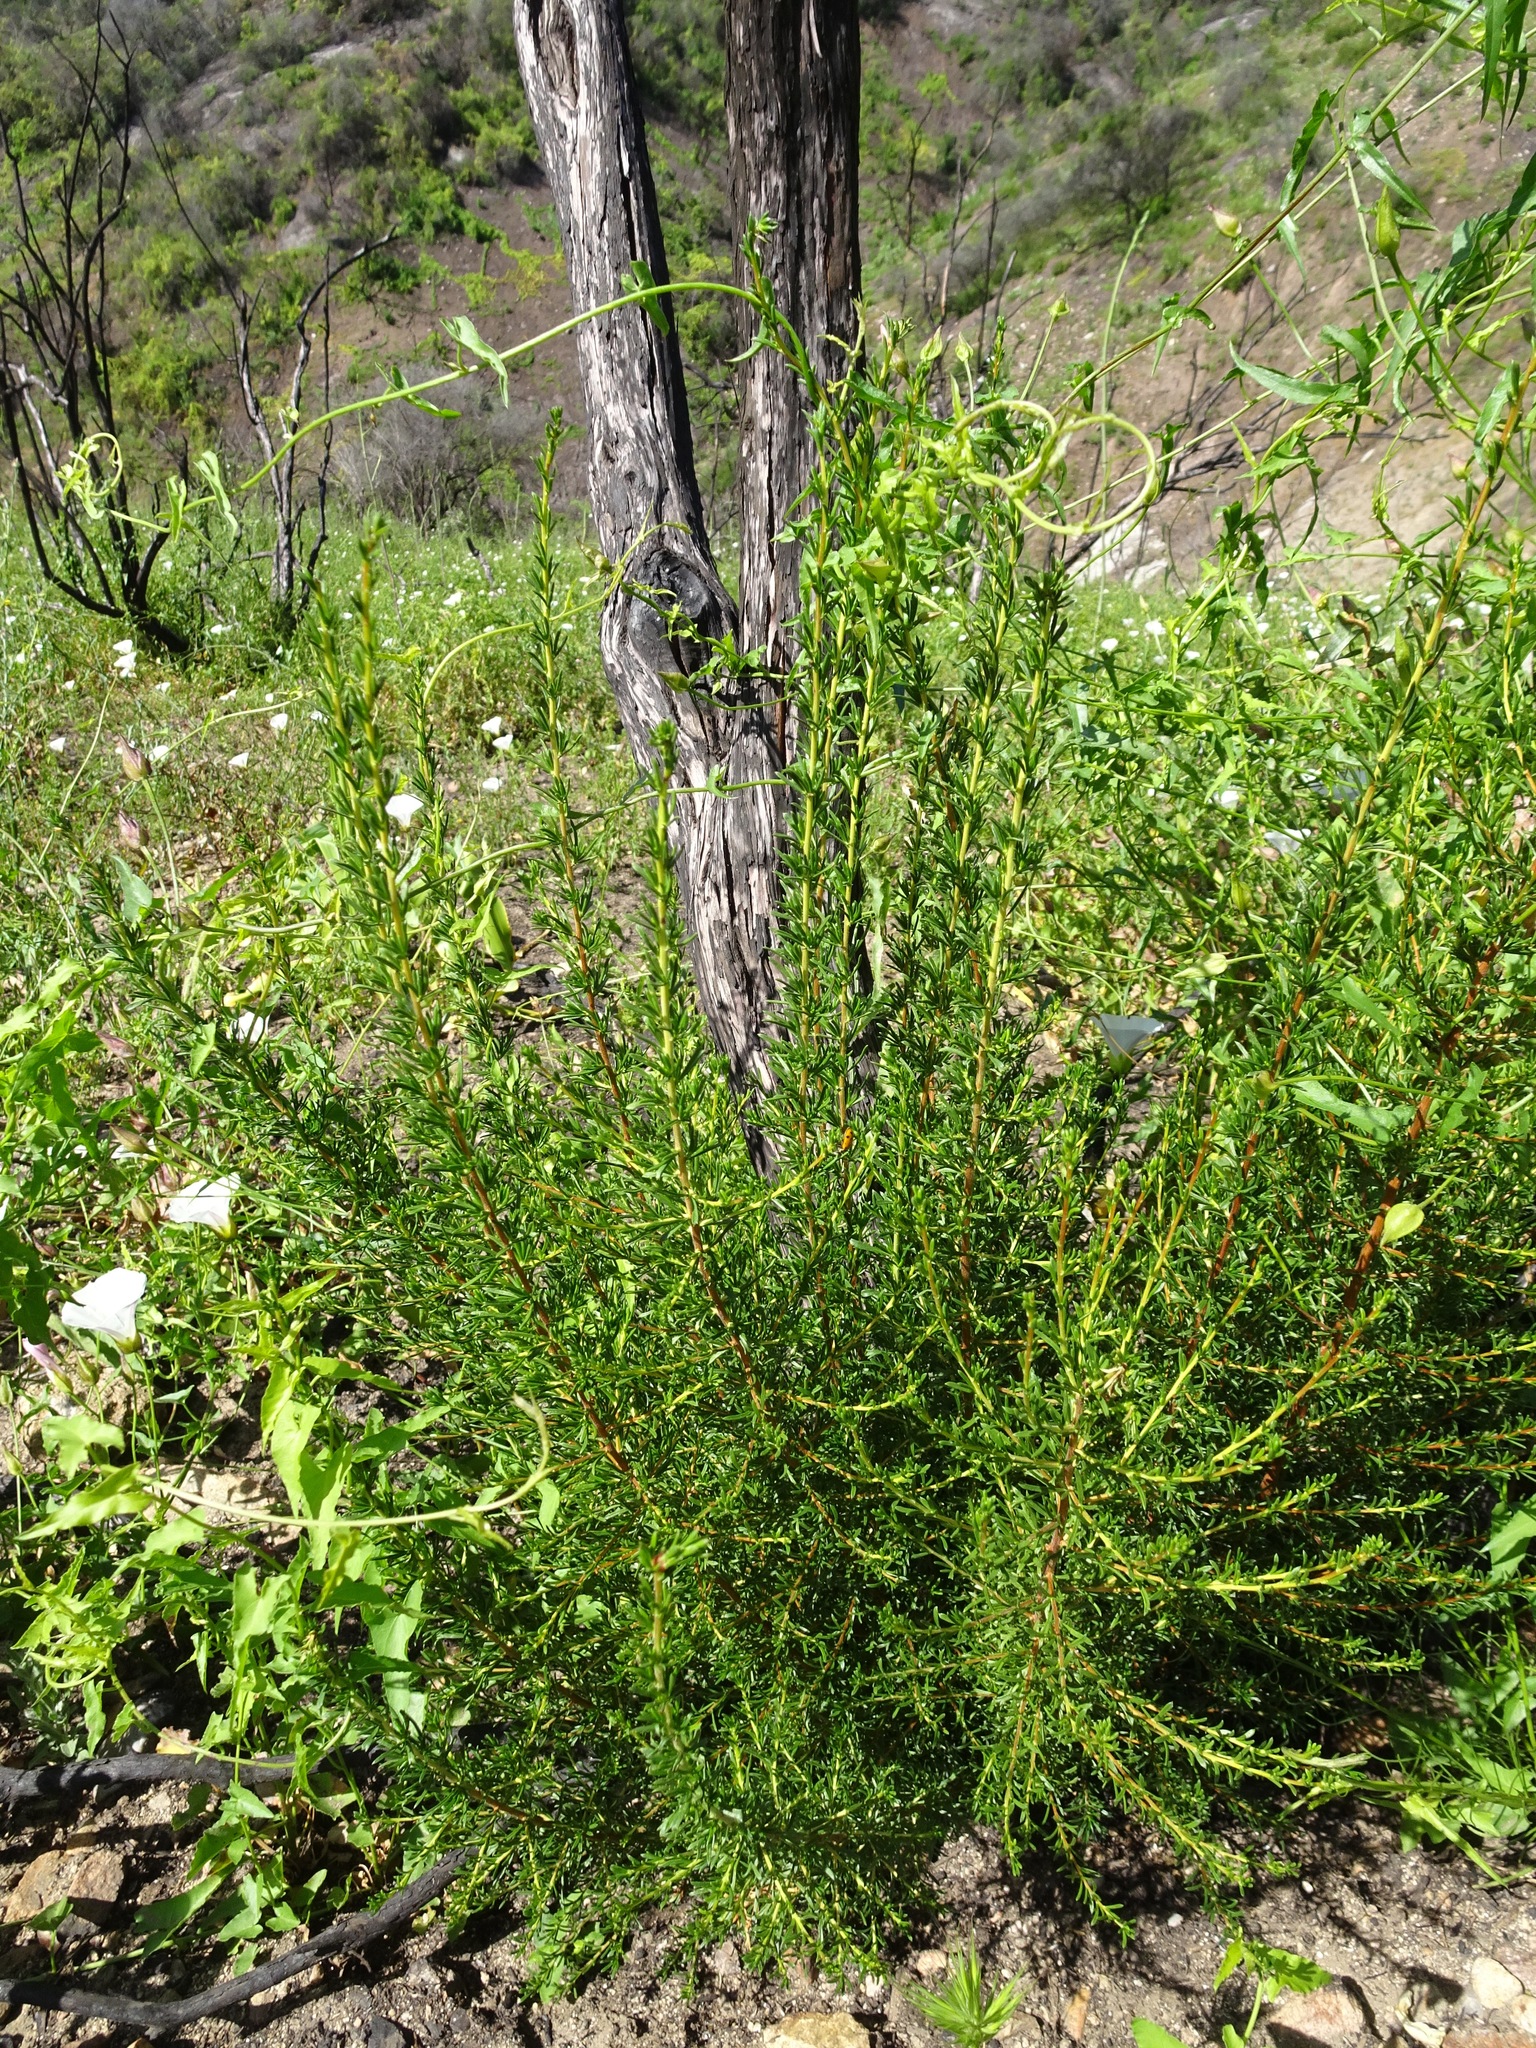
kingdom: Plantae
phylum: Tracheophyta
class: Magnoliopsida
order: Rosales
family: Rosaceae
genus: Adenostoma
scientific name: Adenostoma fasciculatum
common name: Chamise
